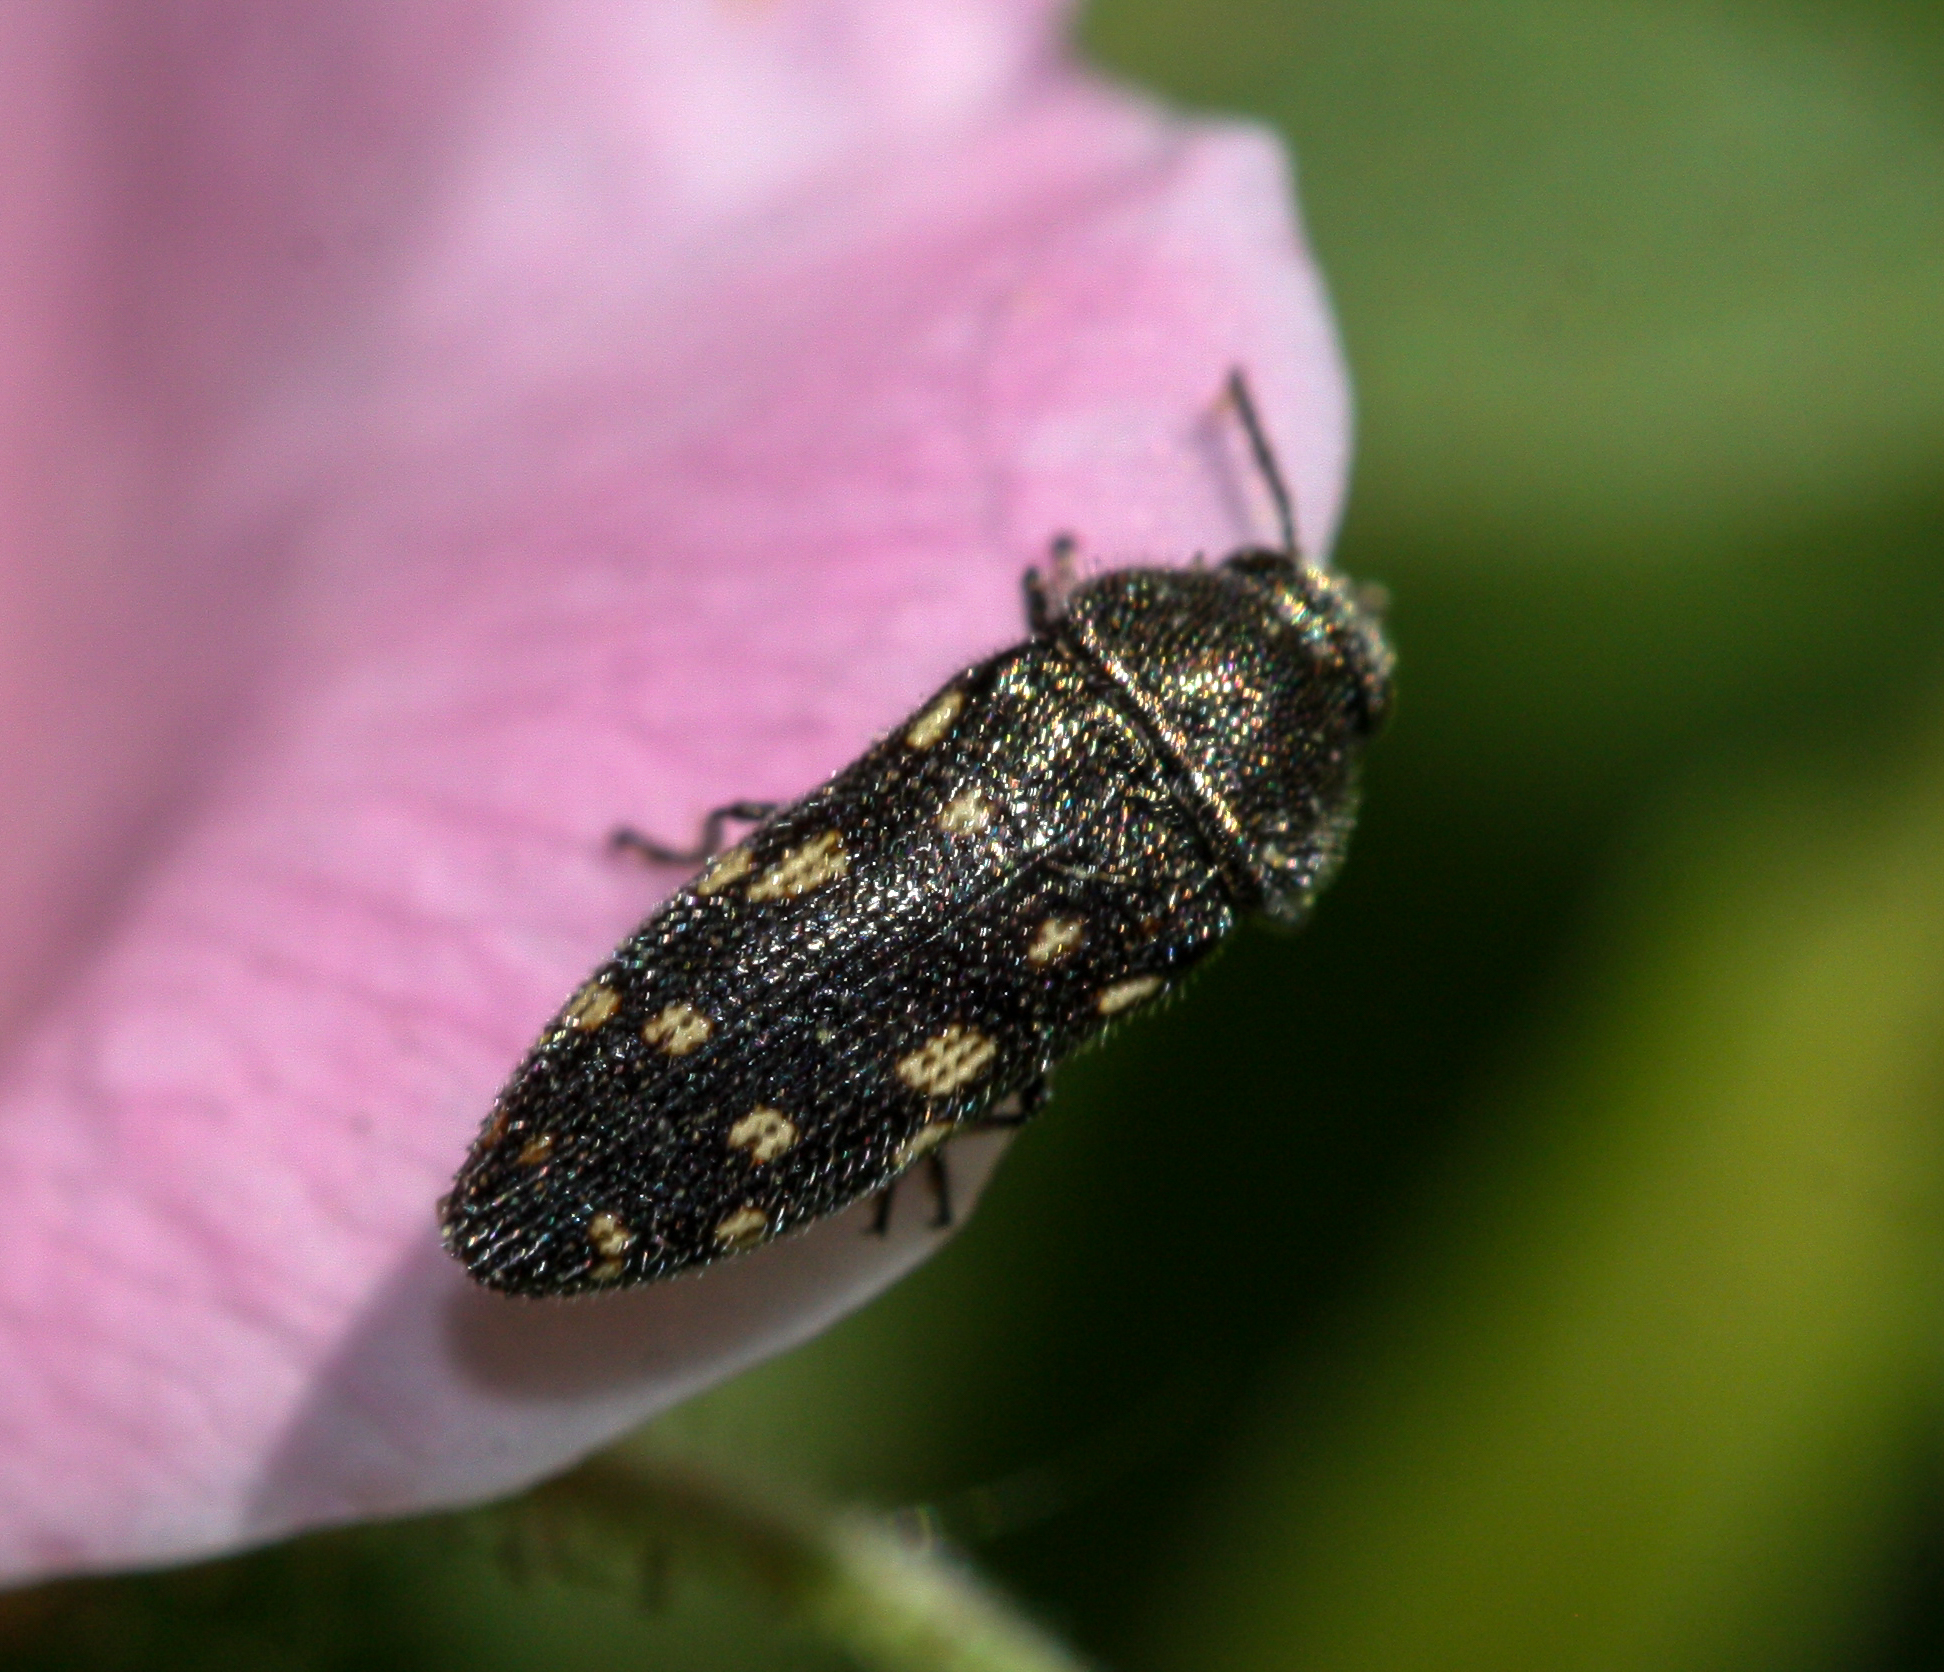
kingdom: Animalia
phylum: Arthropoda
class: Insecta
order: Coleoptera
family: Buprestidae
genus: Acmaeodera
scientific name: Acmaeodera tubulus
